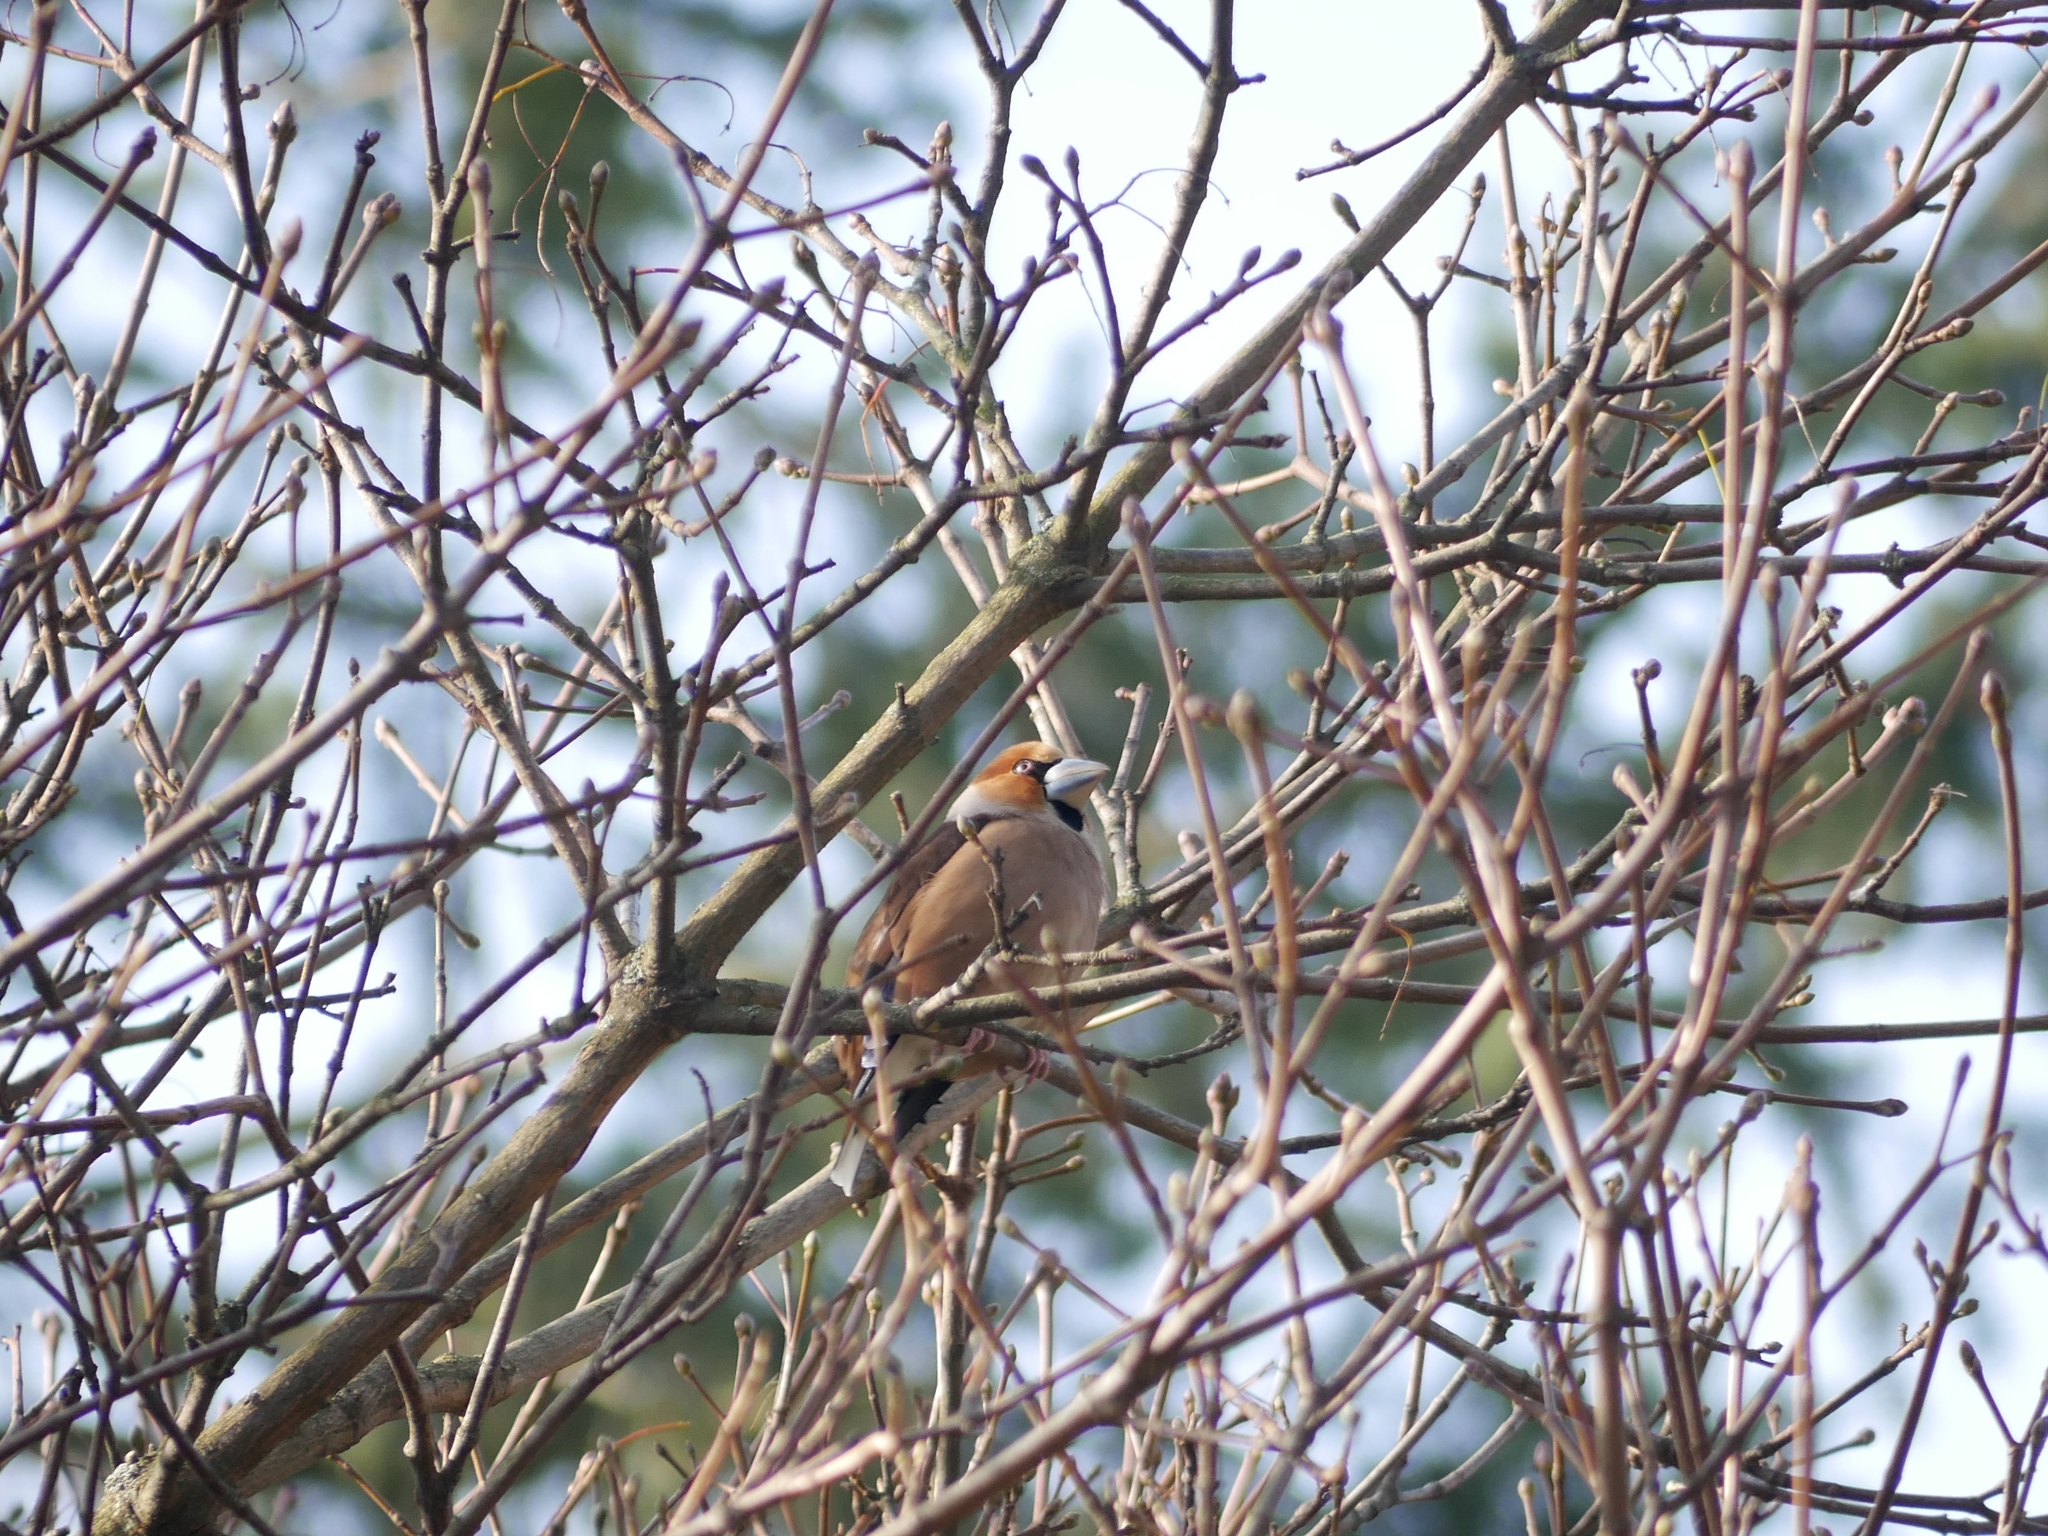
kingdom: Animalia
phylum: Chordata
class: Aves
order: Passeriformes
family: Fringillidae
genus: Coccothraustes
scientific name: Coccothraustes coccothraustes
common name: Hawfinch
